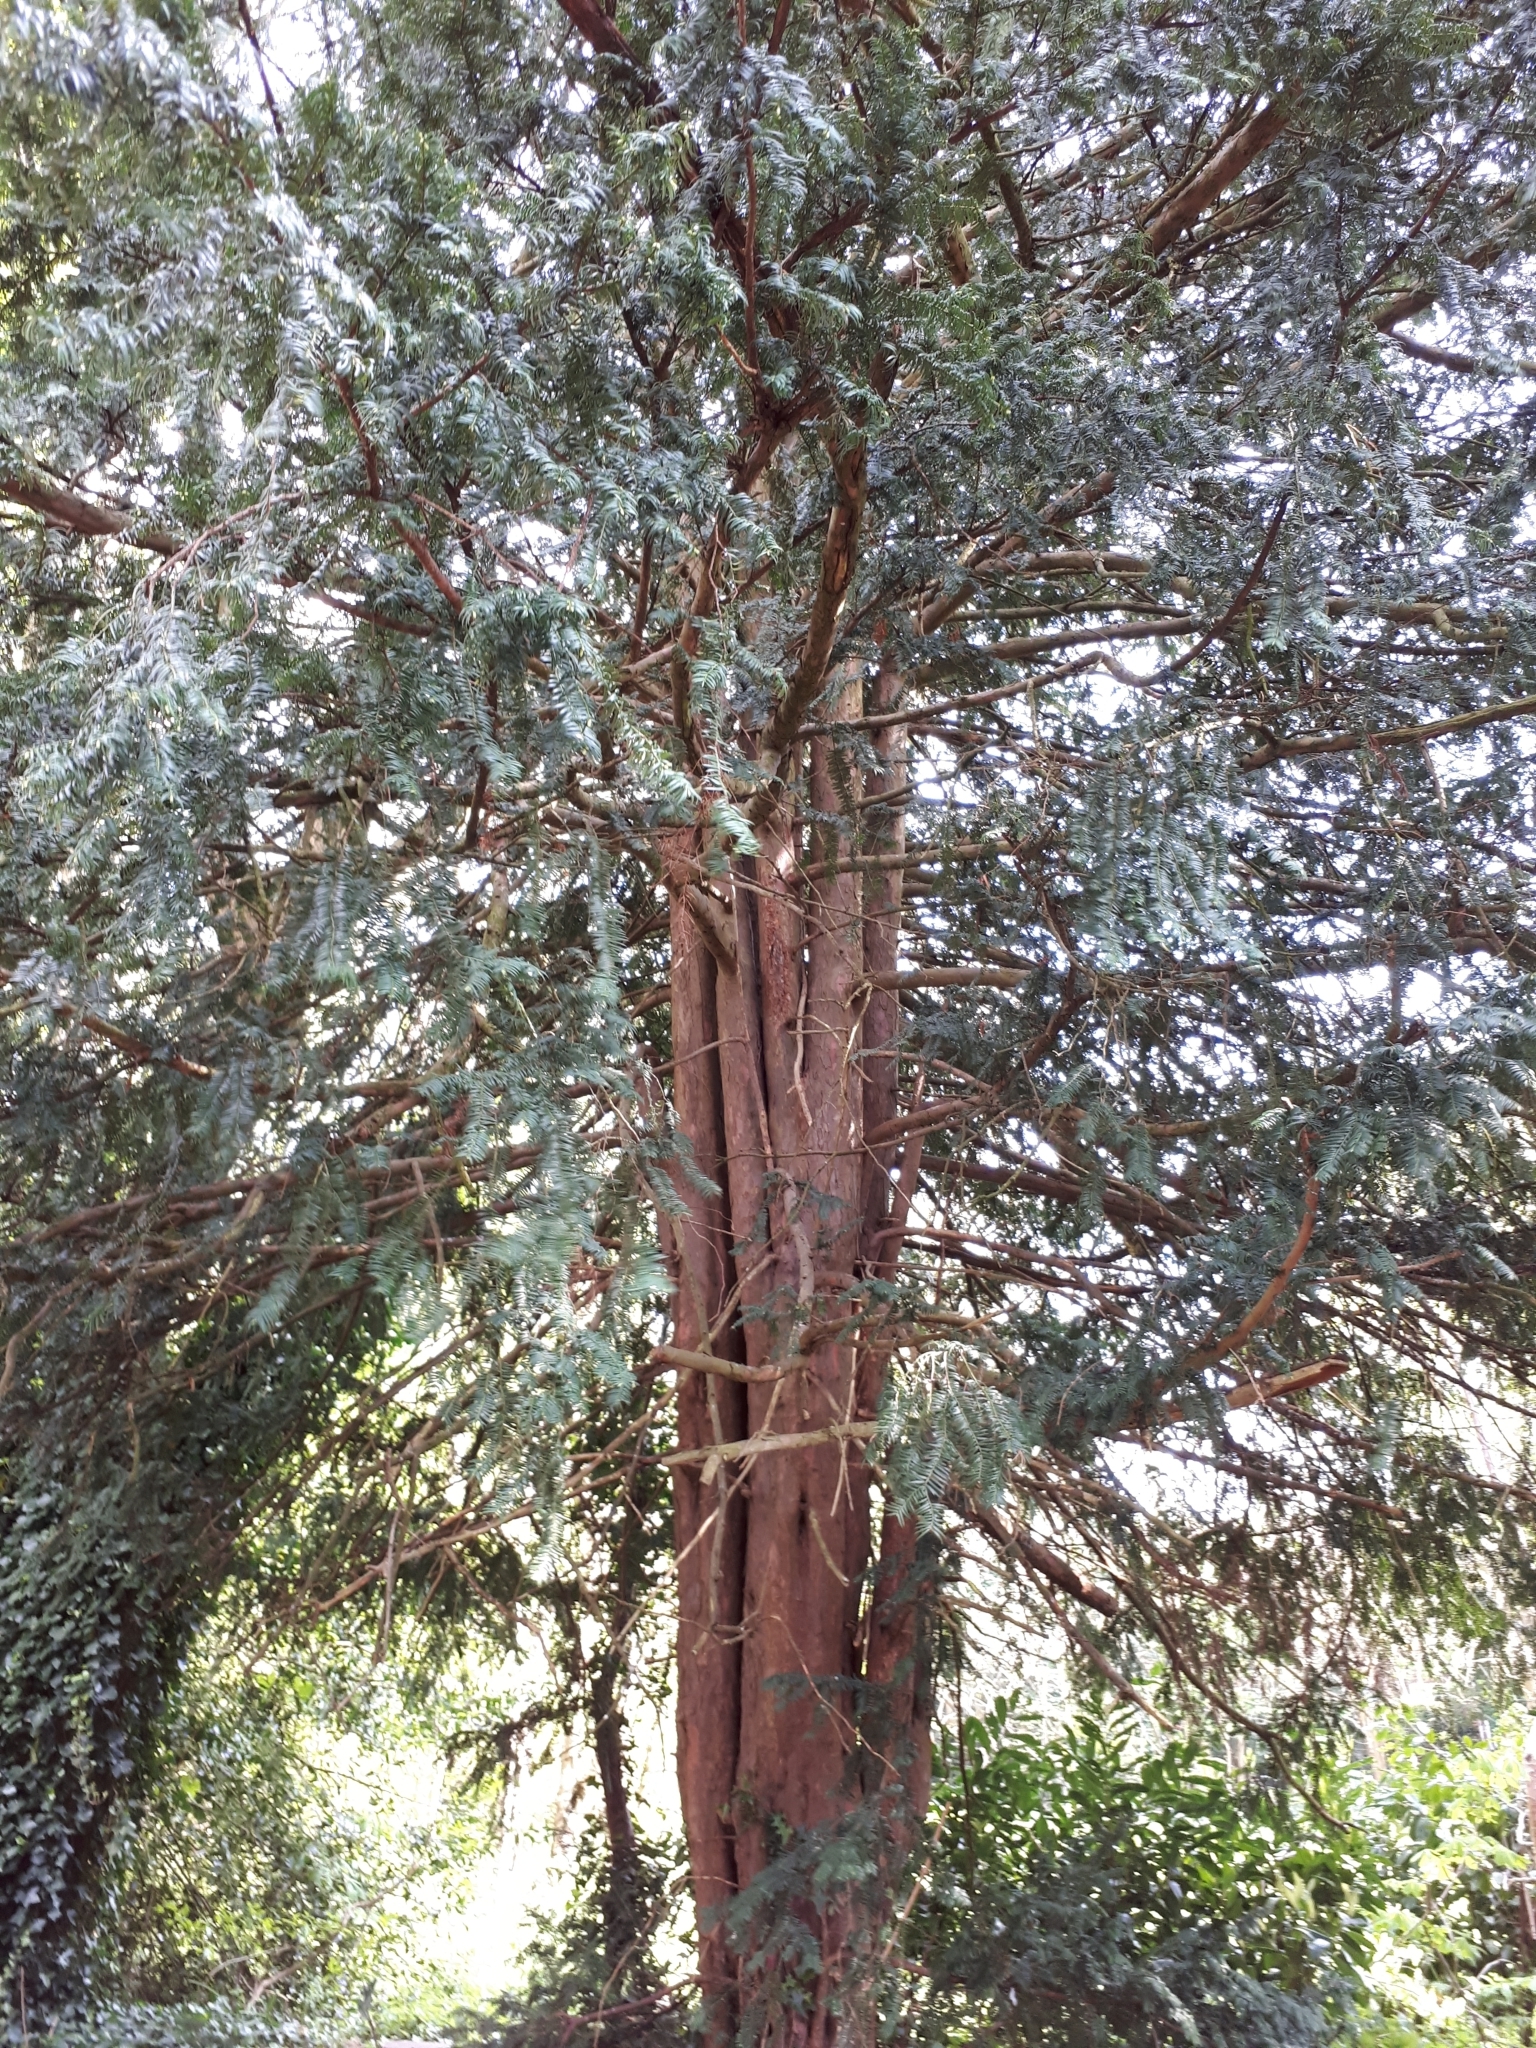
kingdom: Plantae
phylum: Tracheophyta
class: Pinopsida
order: Pinales
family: Taxaceae
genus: Taxus
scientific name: Taxus baccata
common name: Yew
